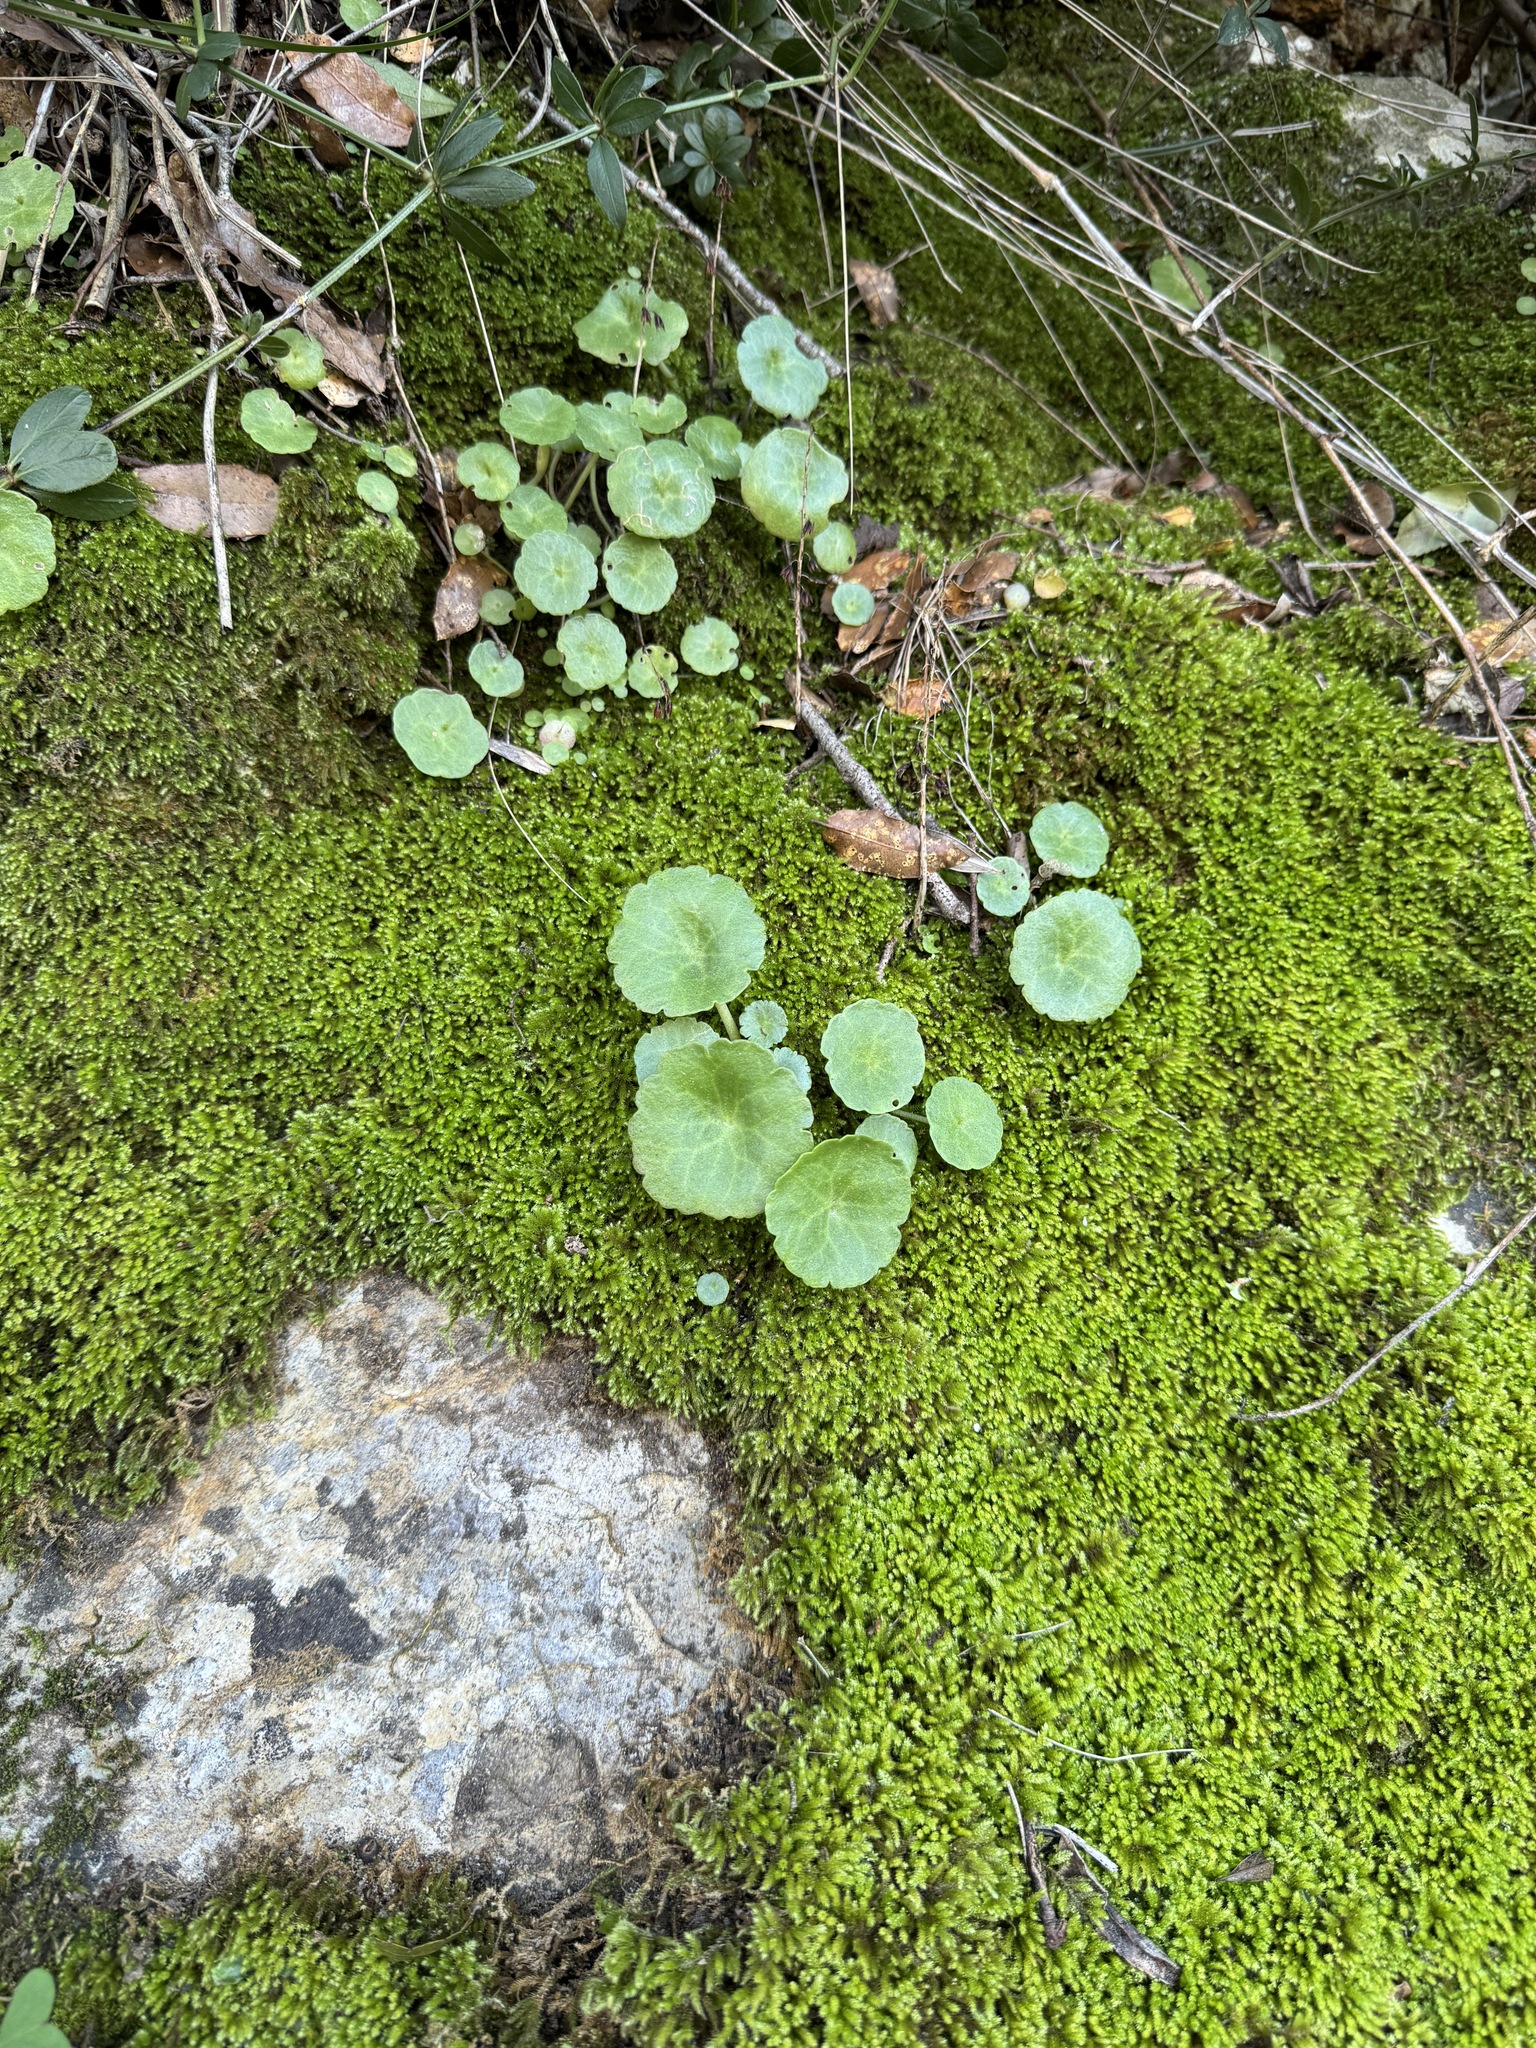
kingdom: Plantae
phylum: Tracheophyta
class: Magnoliopsida
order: Saxifragales
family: Crassulaceae
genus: Umbilicus
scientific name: Umbilicus rupestris
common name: Navelwort
